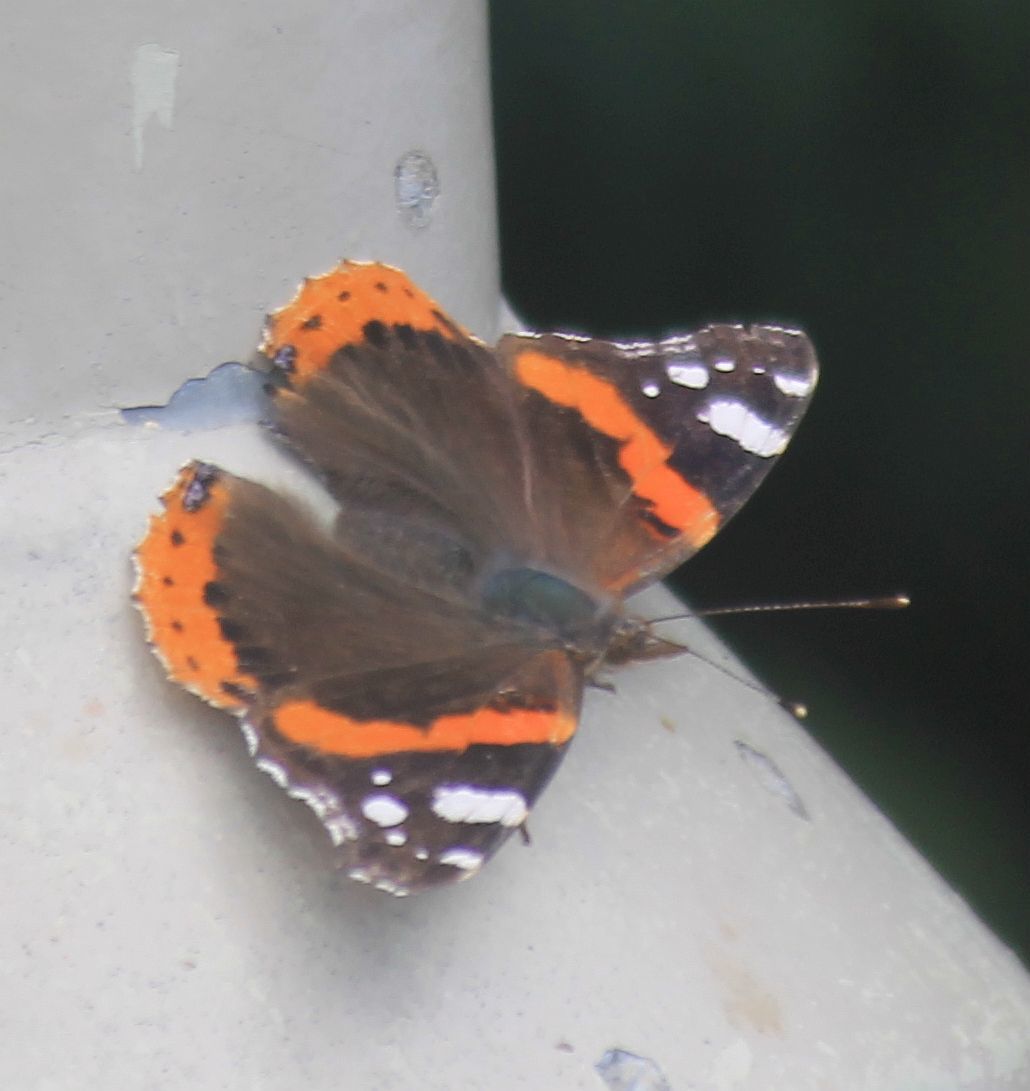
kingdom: Animalia
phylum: Arthropoda
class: Insecta
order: Lepidoptera
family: Nymphalidae
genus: Vanessa
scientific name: Vanessa atalanta
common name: Red admiral
